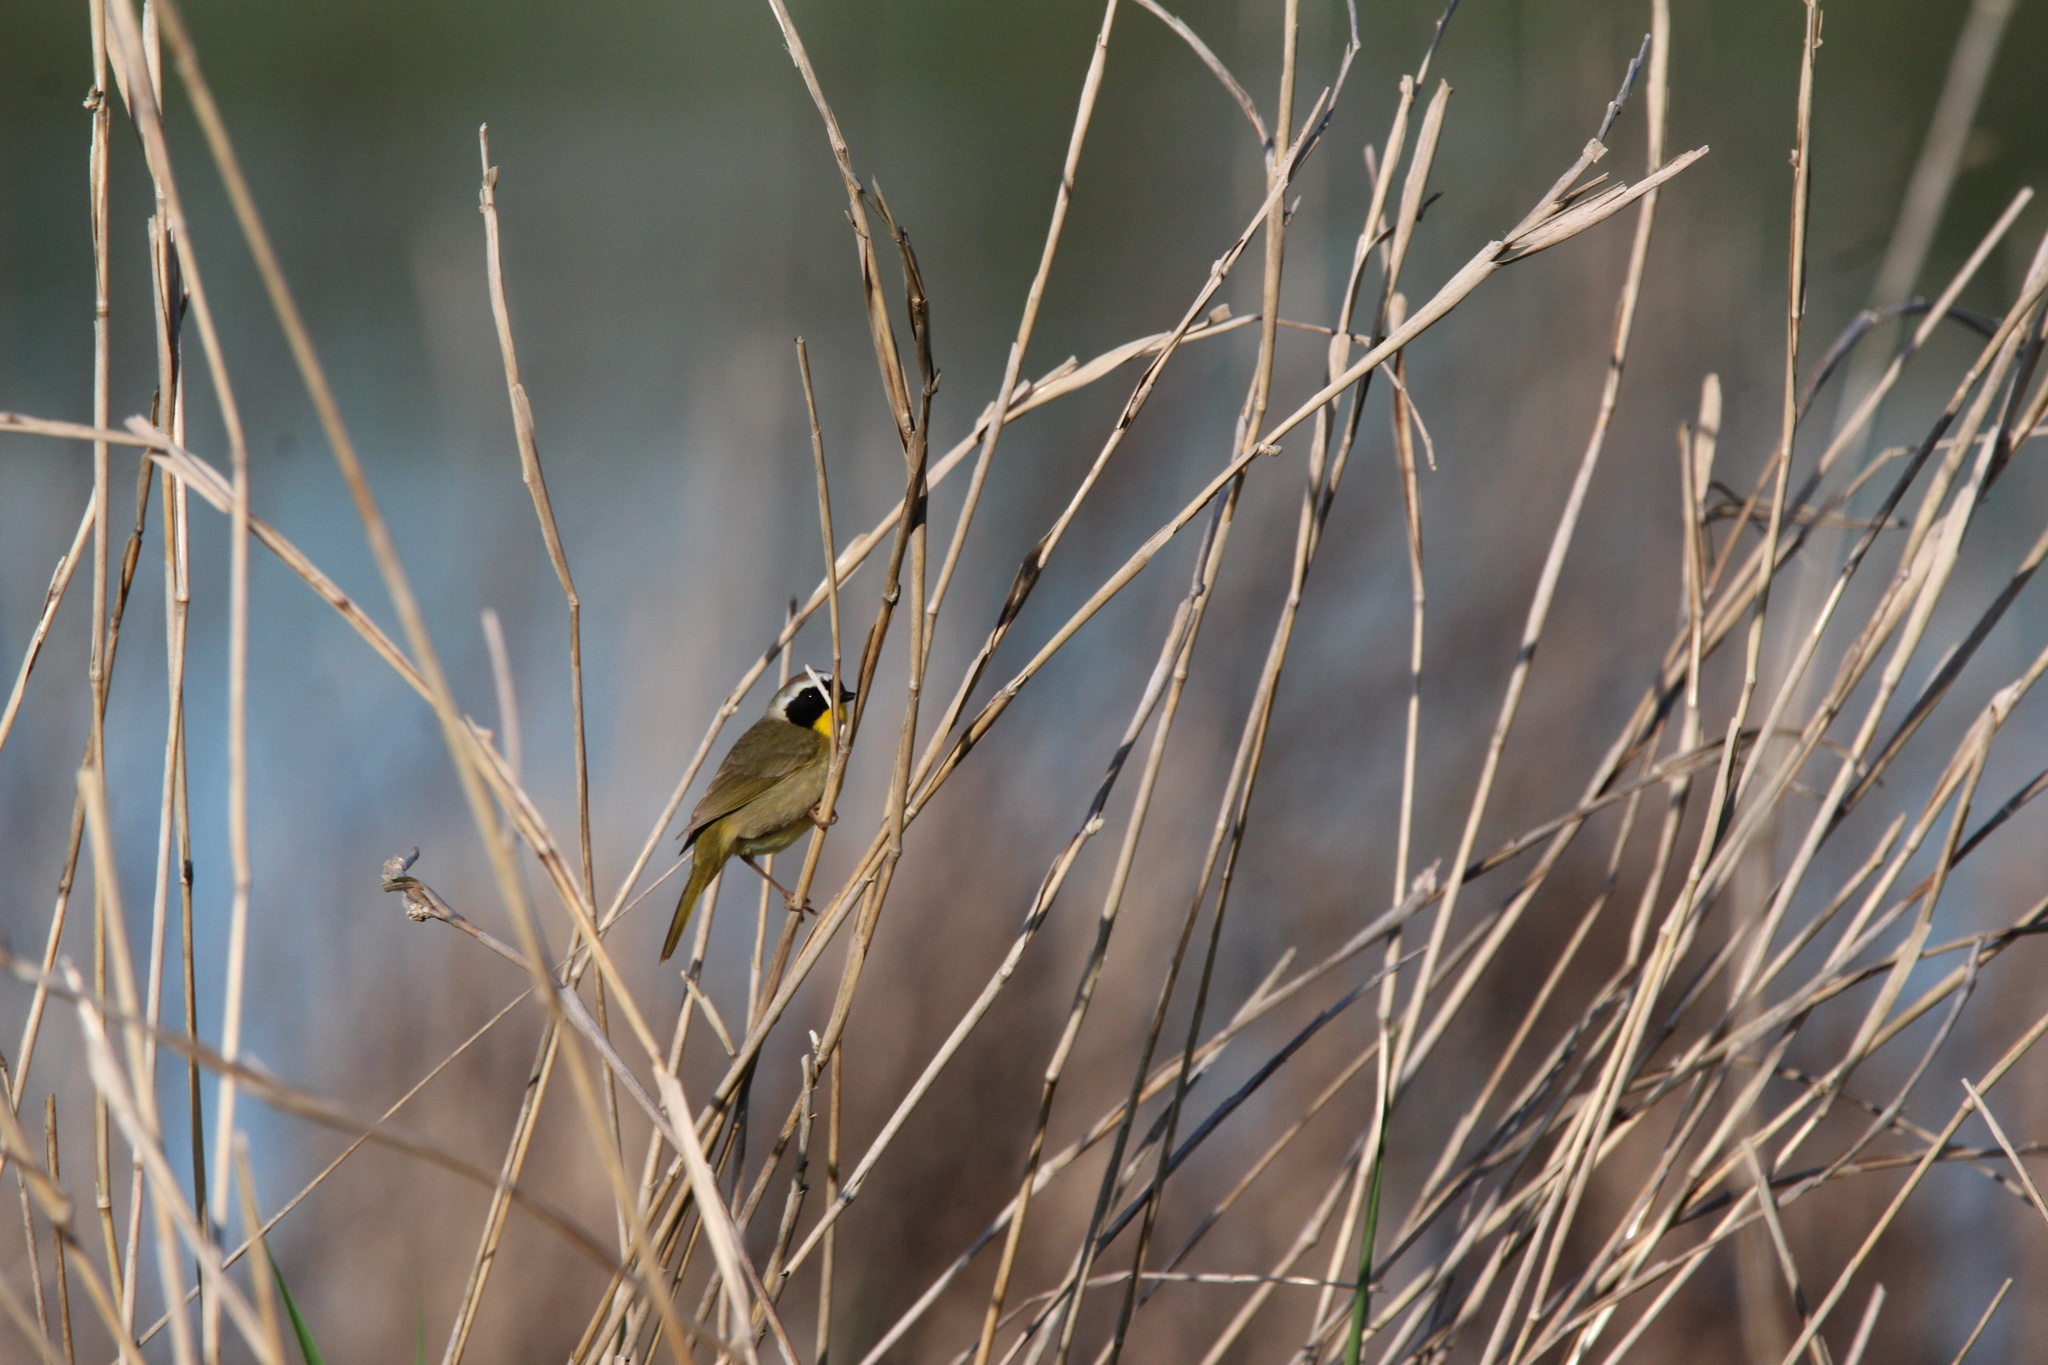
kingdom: Animalia
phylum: Chordata
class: Aves
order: Passeriformes
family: Parulidae
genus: Geothlypis
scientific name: Geothlypis trichas
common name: Common yellowthroat
